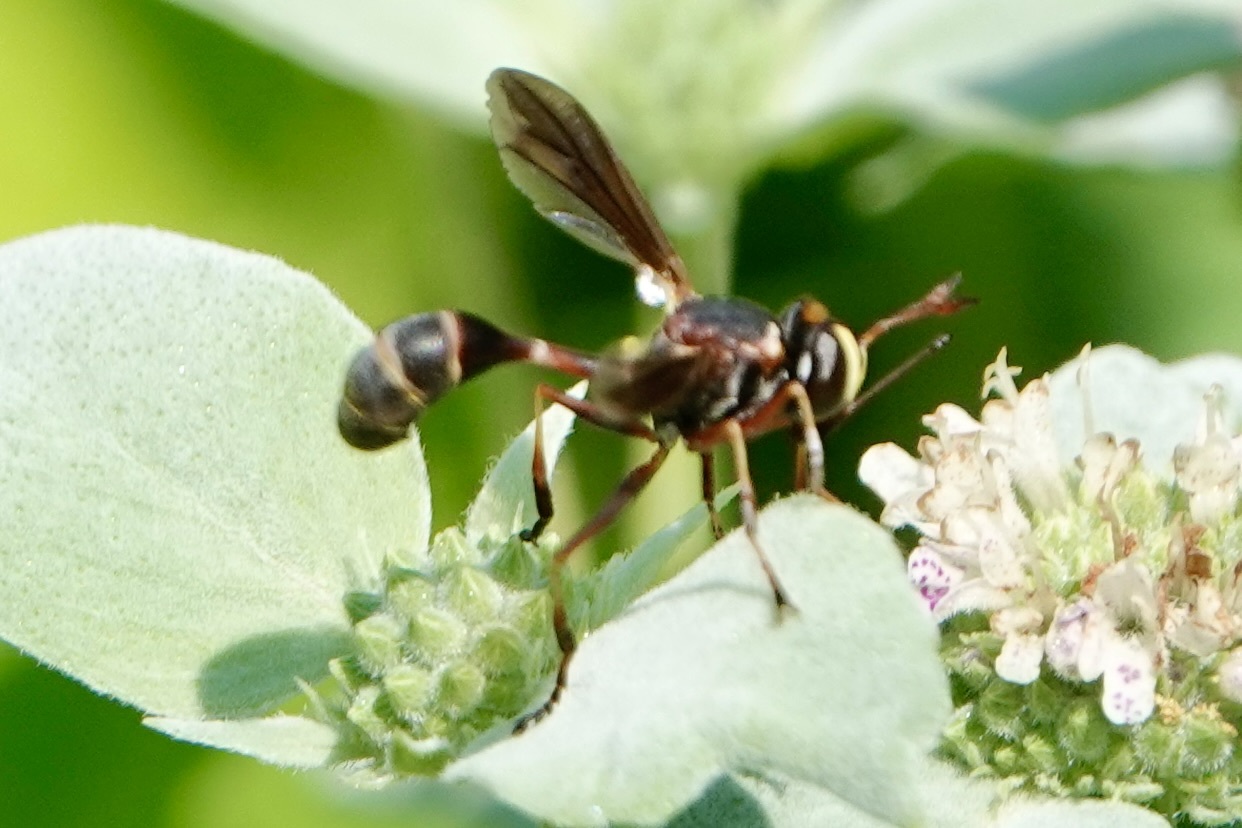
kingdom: Animalia
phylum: Arthropoda
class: Insecta
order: Diptera
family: Conopidae
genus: Physocephala
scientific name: Physocephala sagittaria
